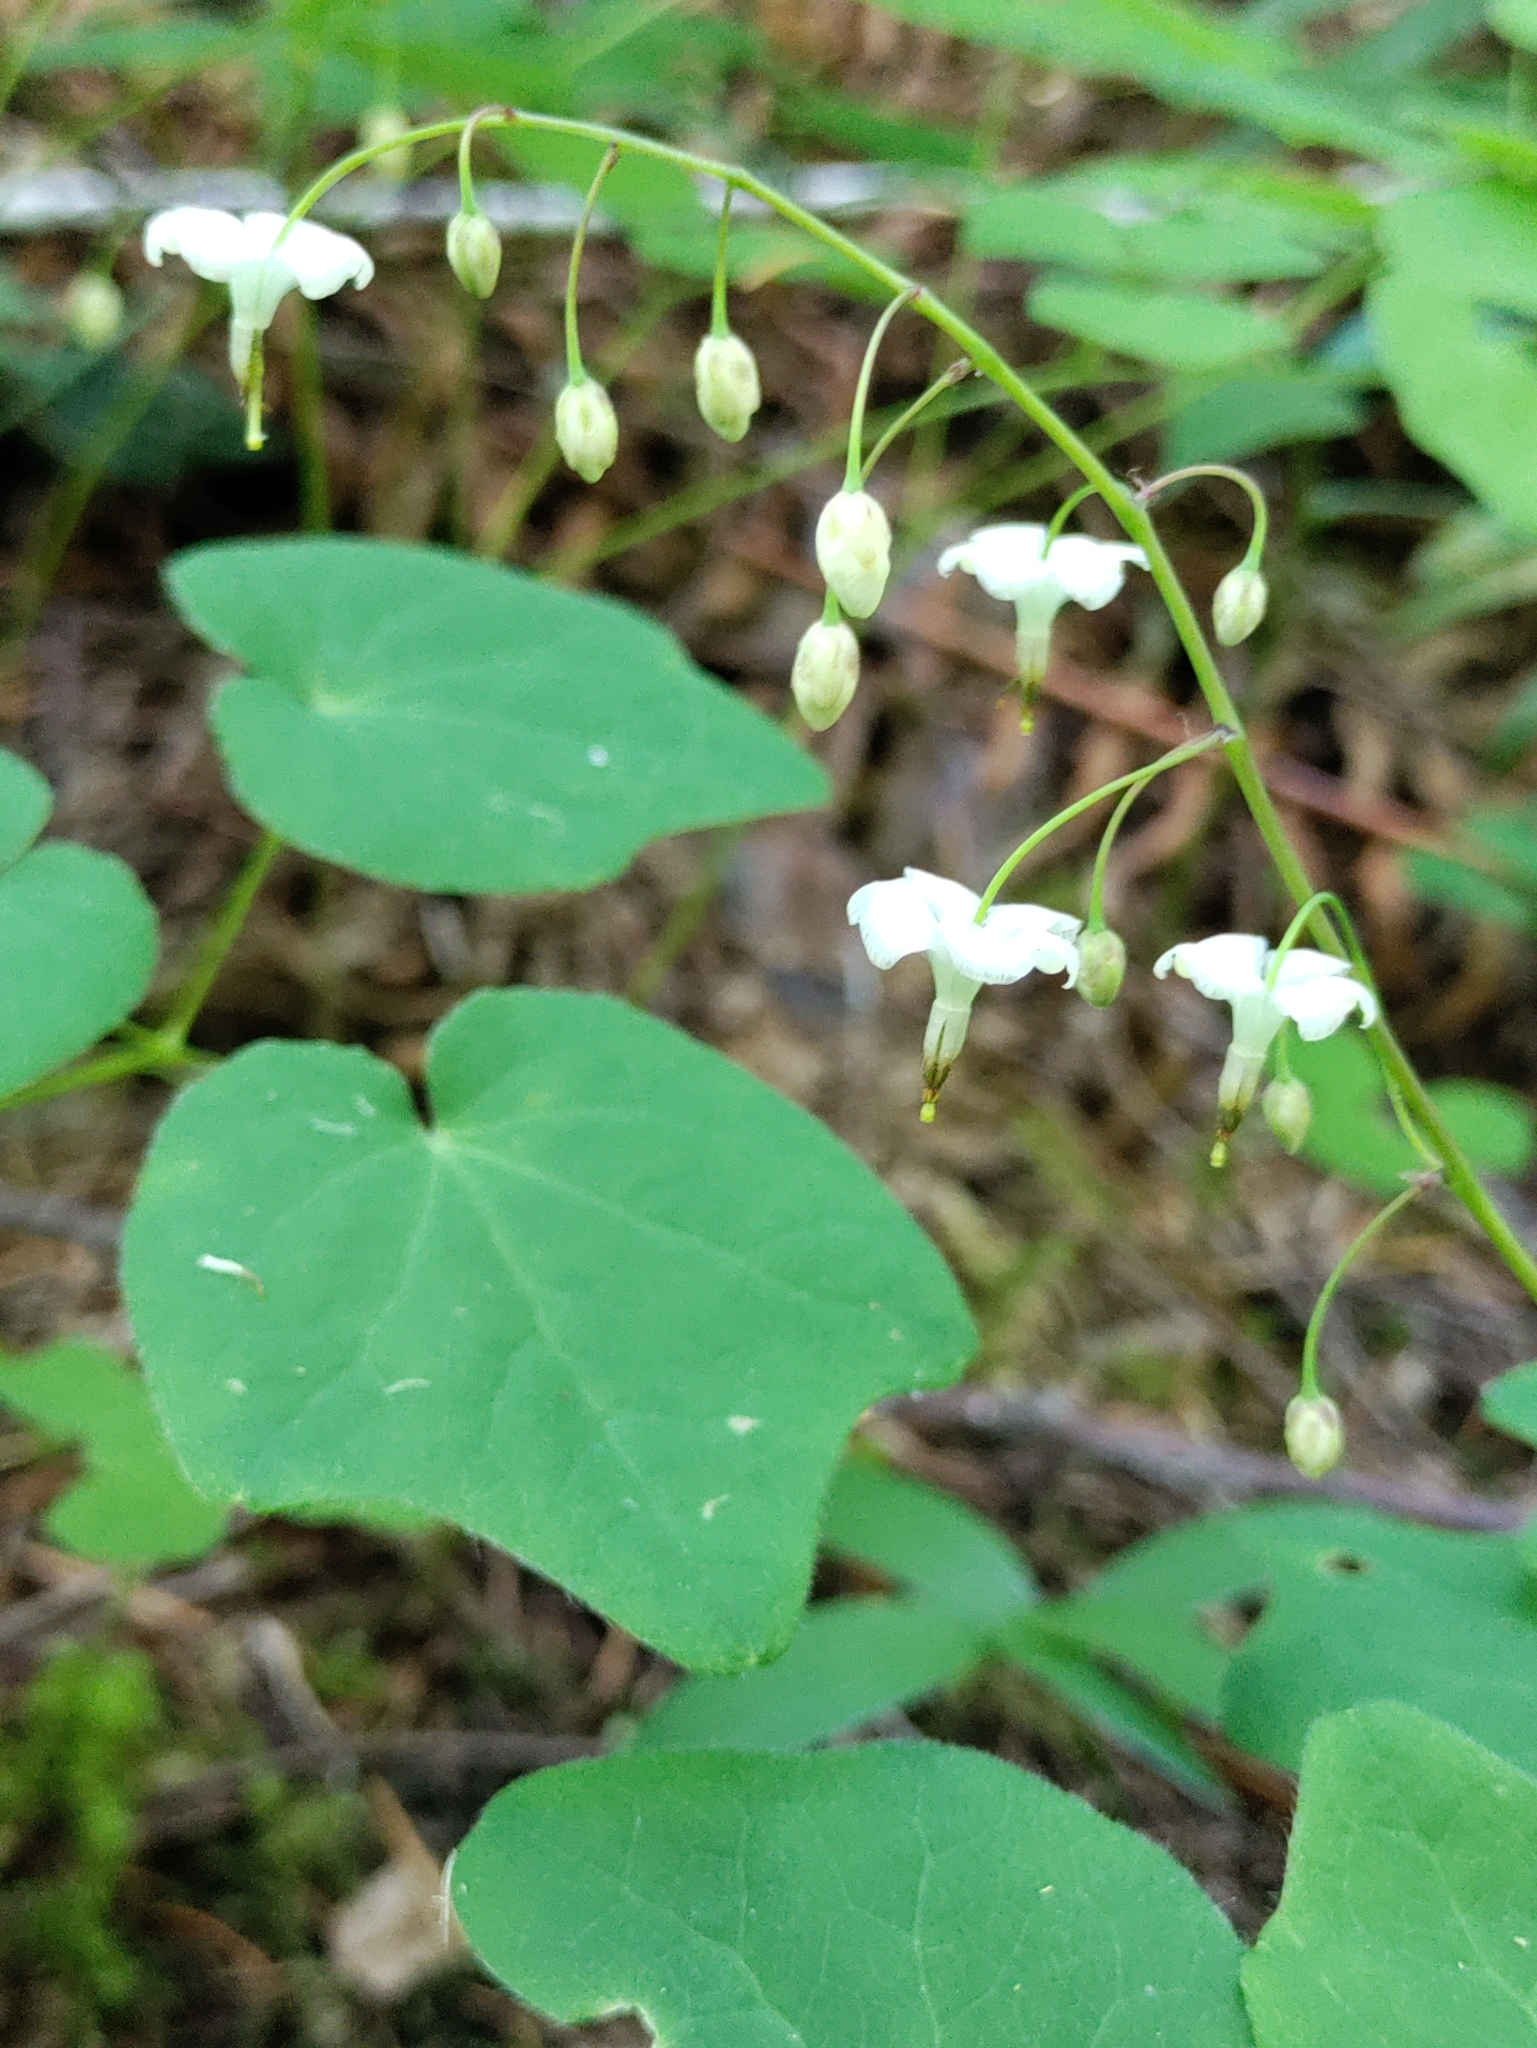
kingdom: Plantae
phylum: Tracheophyta
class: Magnoliopsida
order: Ranunculales
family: Berberidaceae
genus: Vancouveria
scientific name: Vancouveria hexandra
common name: Northern inside-out-flower
